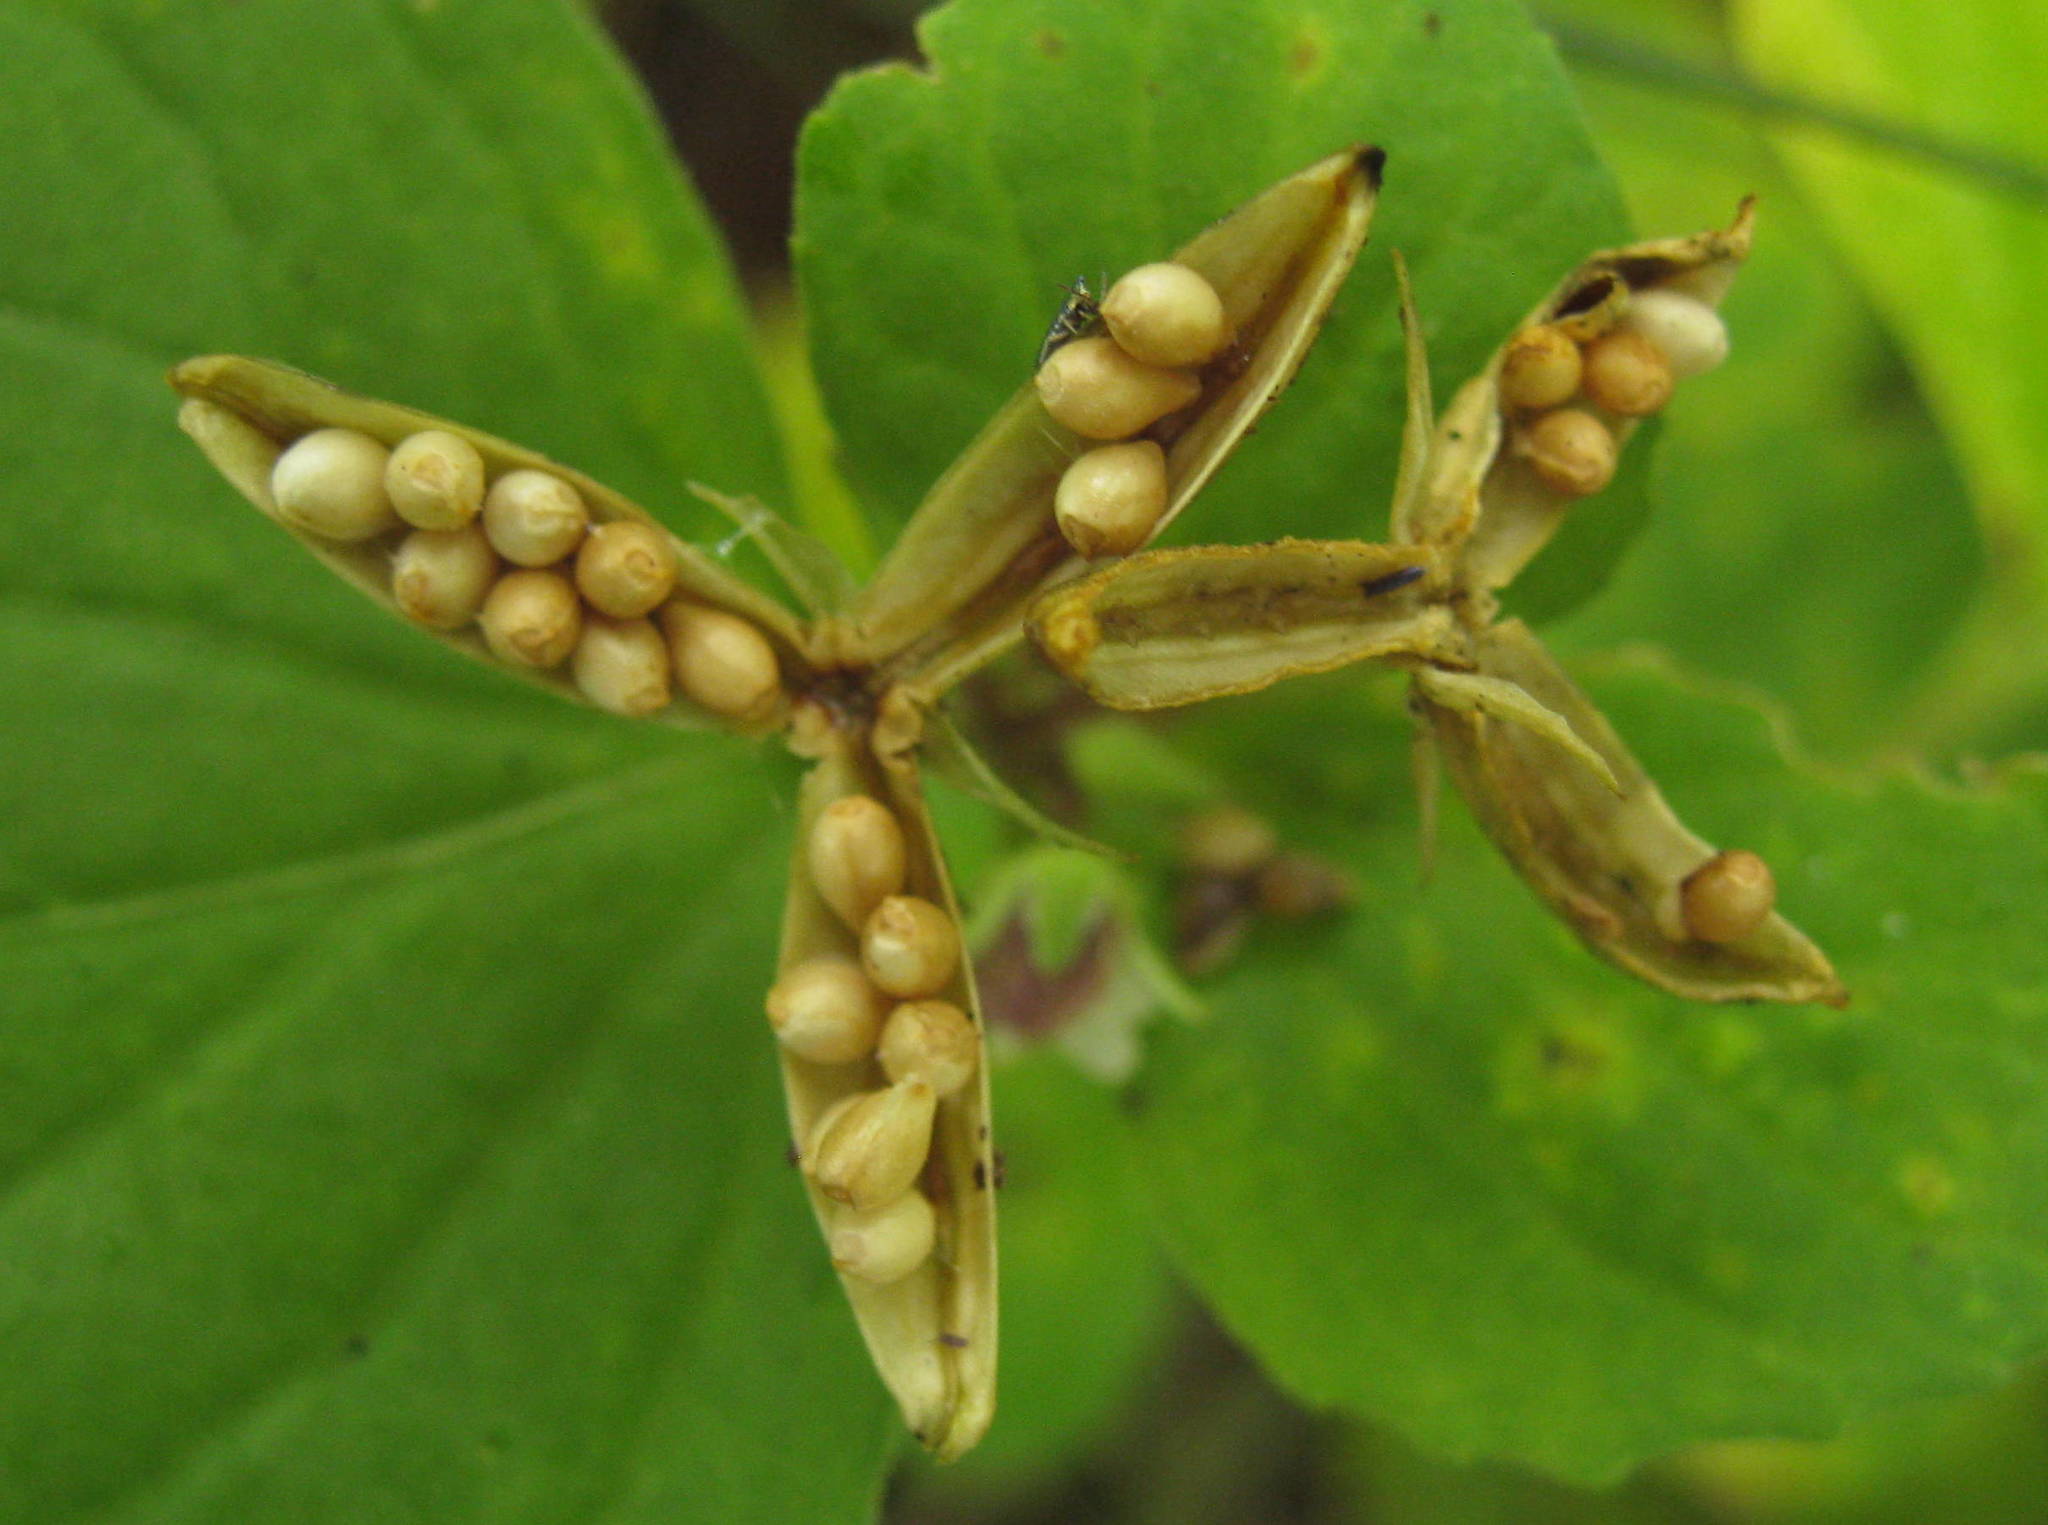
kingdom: Plantae
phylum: Tracheophyta
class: Magnoliopsida
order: Malpighiales
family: Violaceae
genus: Viola
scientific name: Viola
